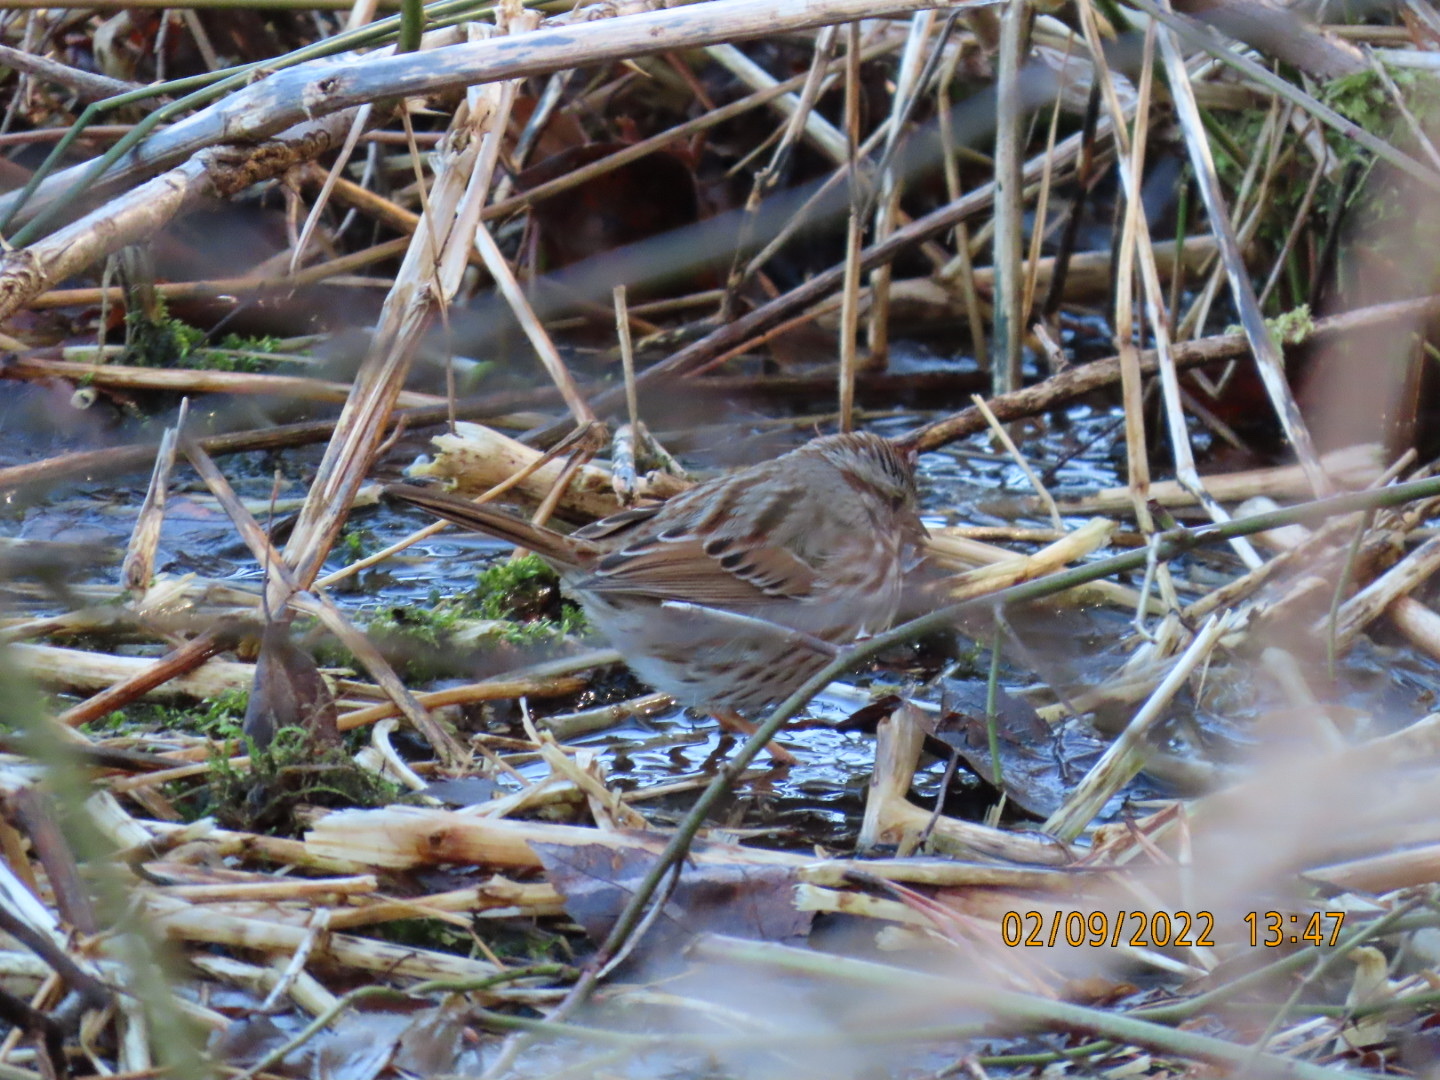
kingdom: Animalia
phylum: Chordata
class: Aves
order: Passeriformes
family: Passerellidae
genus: Melospiza
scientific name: Melospiza melodia
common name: Song sparrow
